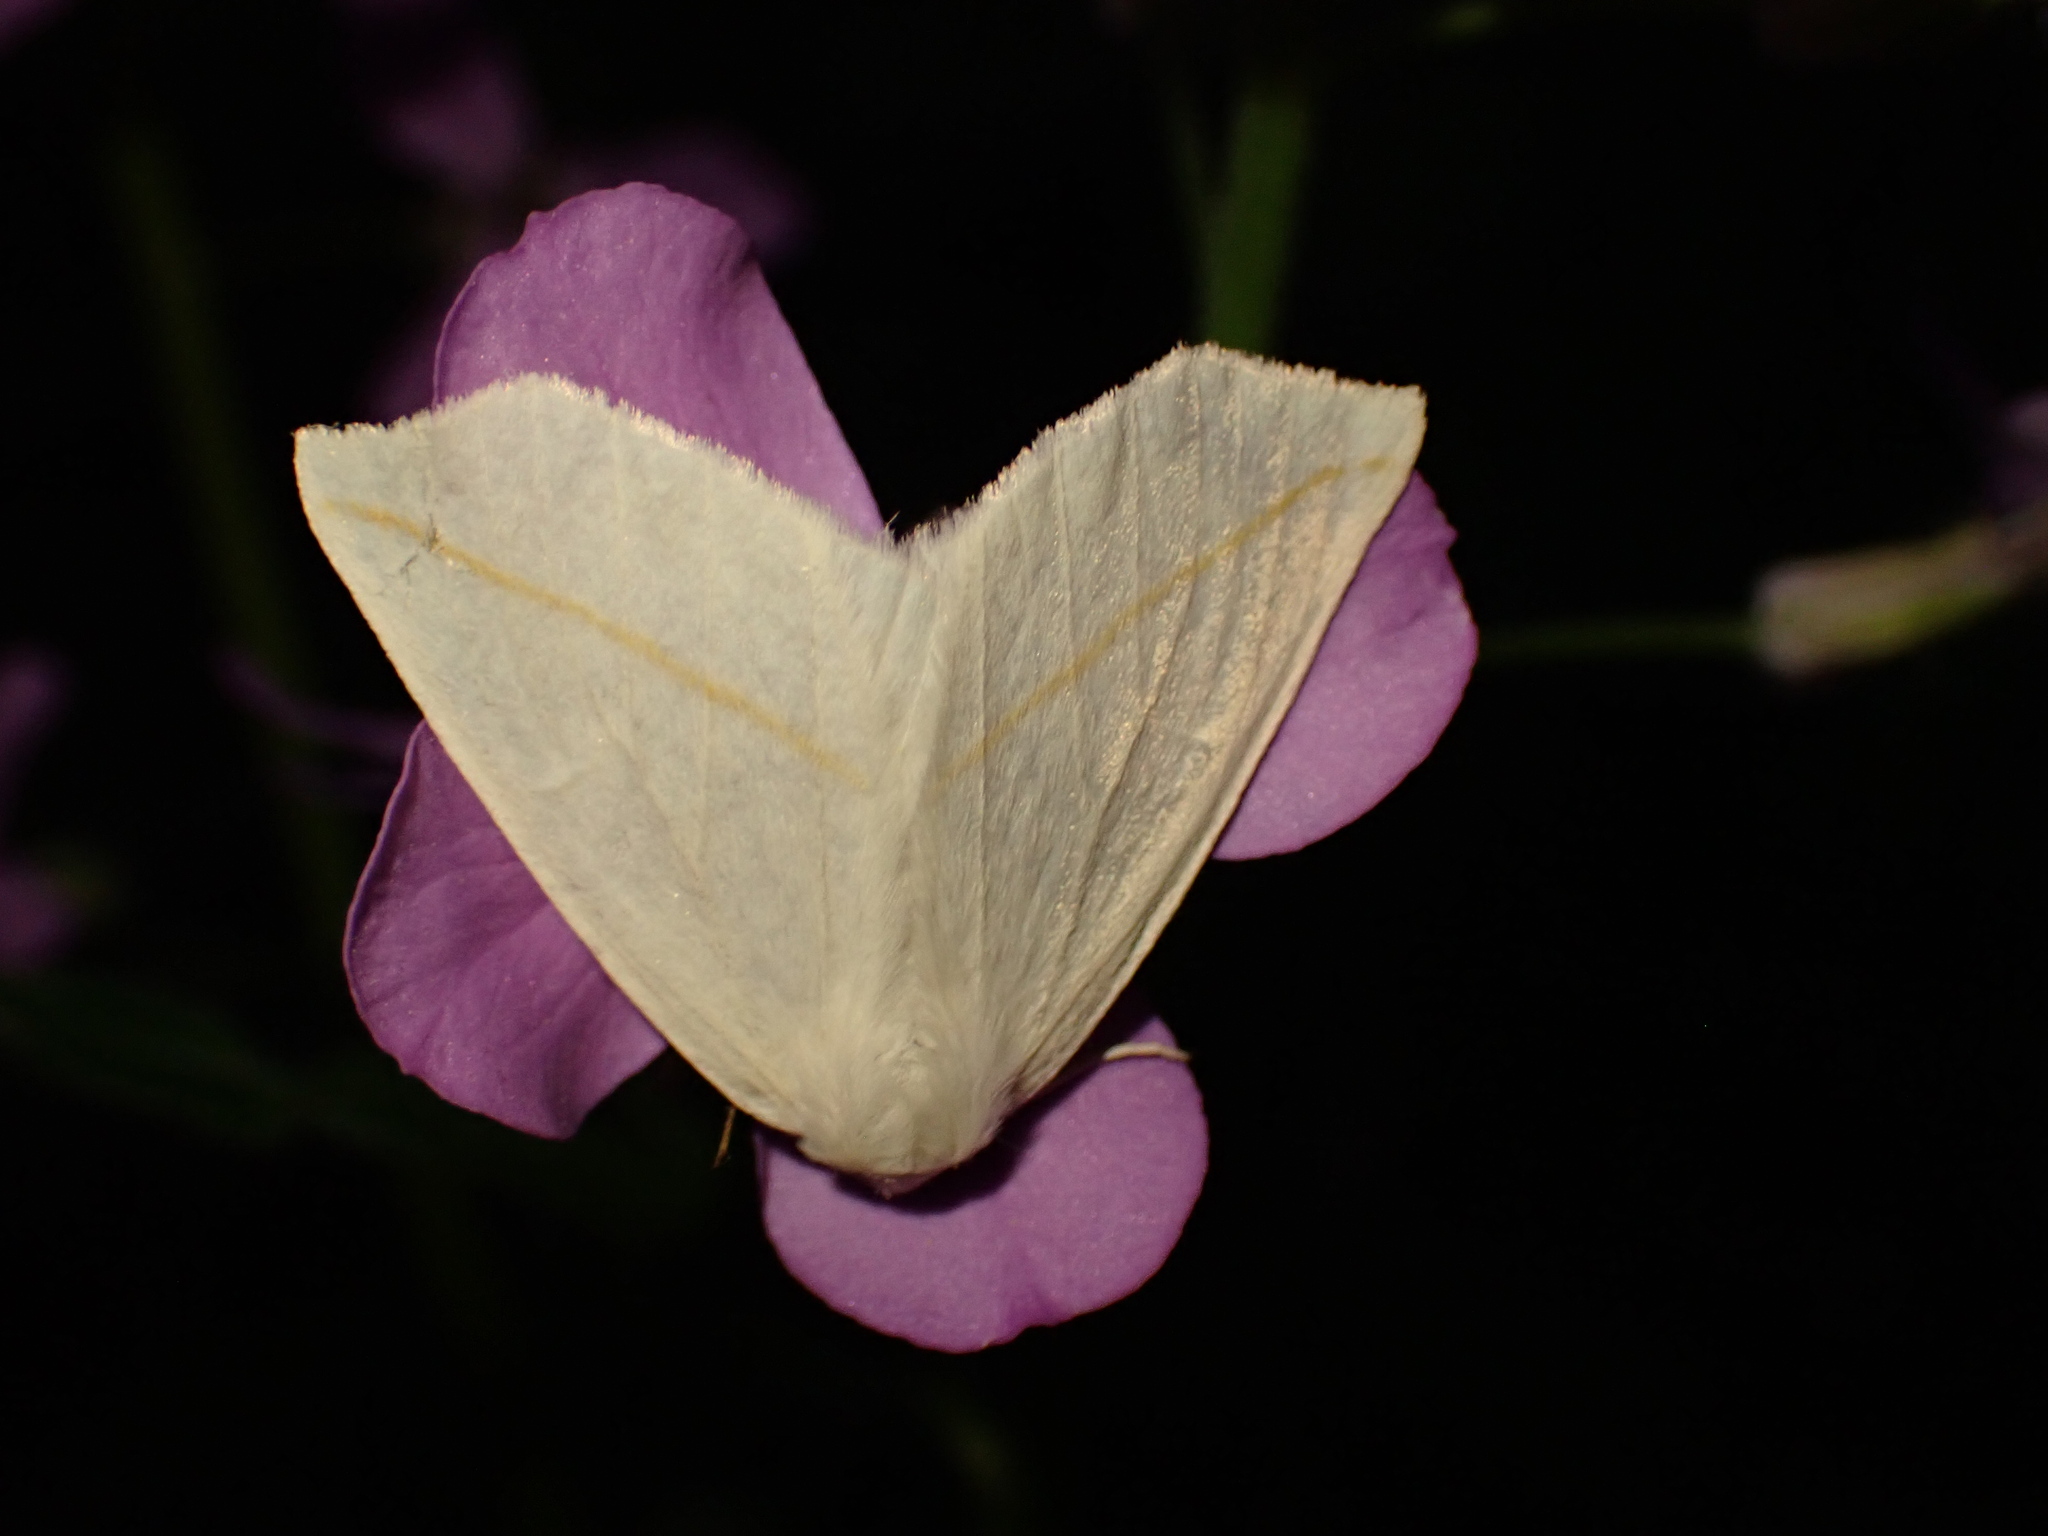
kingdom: Animalia
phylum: Arthropoda
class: Insecta
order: Lepidoptera
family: Geometridae
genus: Tetracis
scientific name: Tetracis cachexiata
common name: White slant-line
